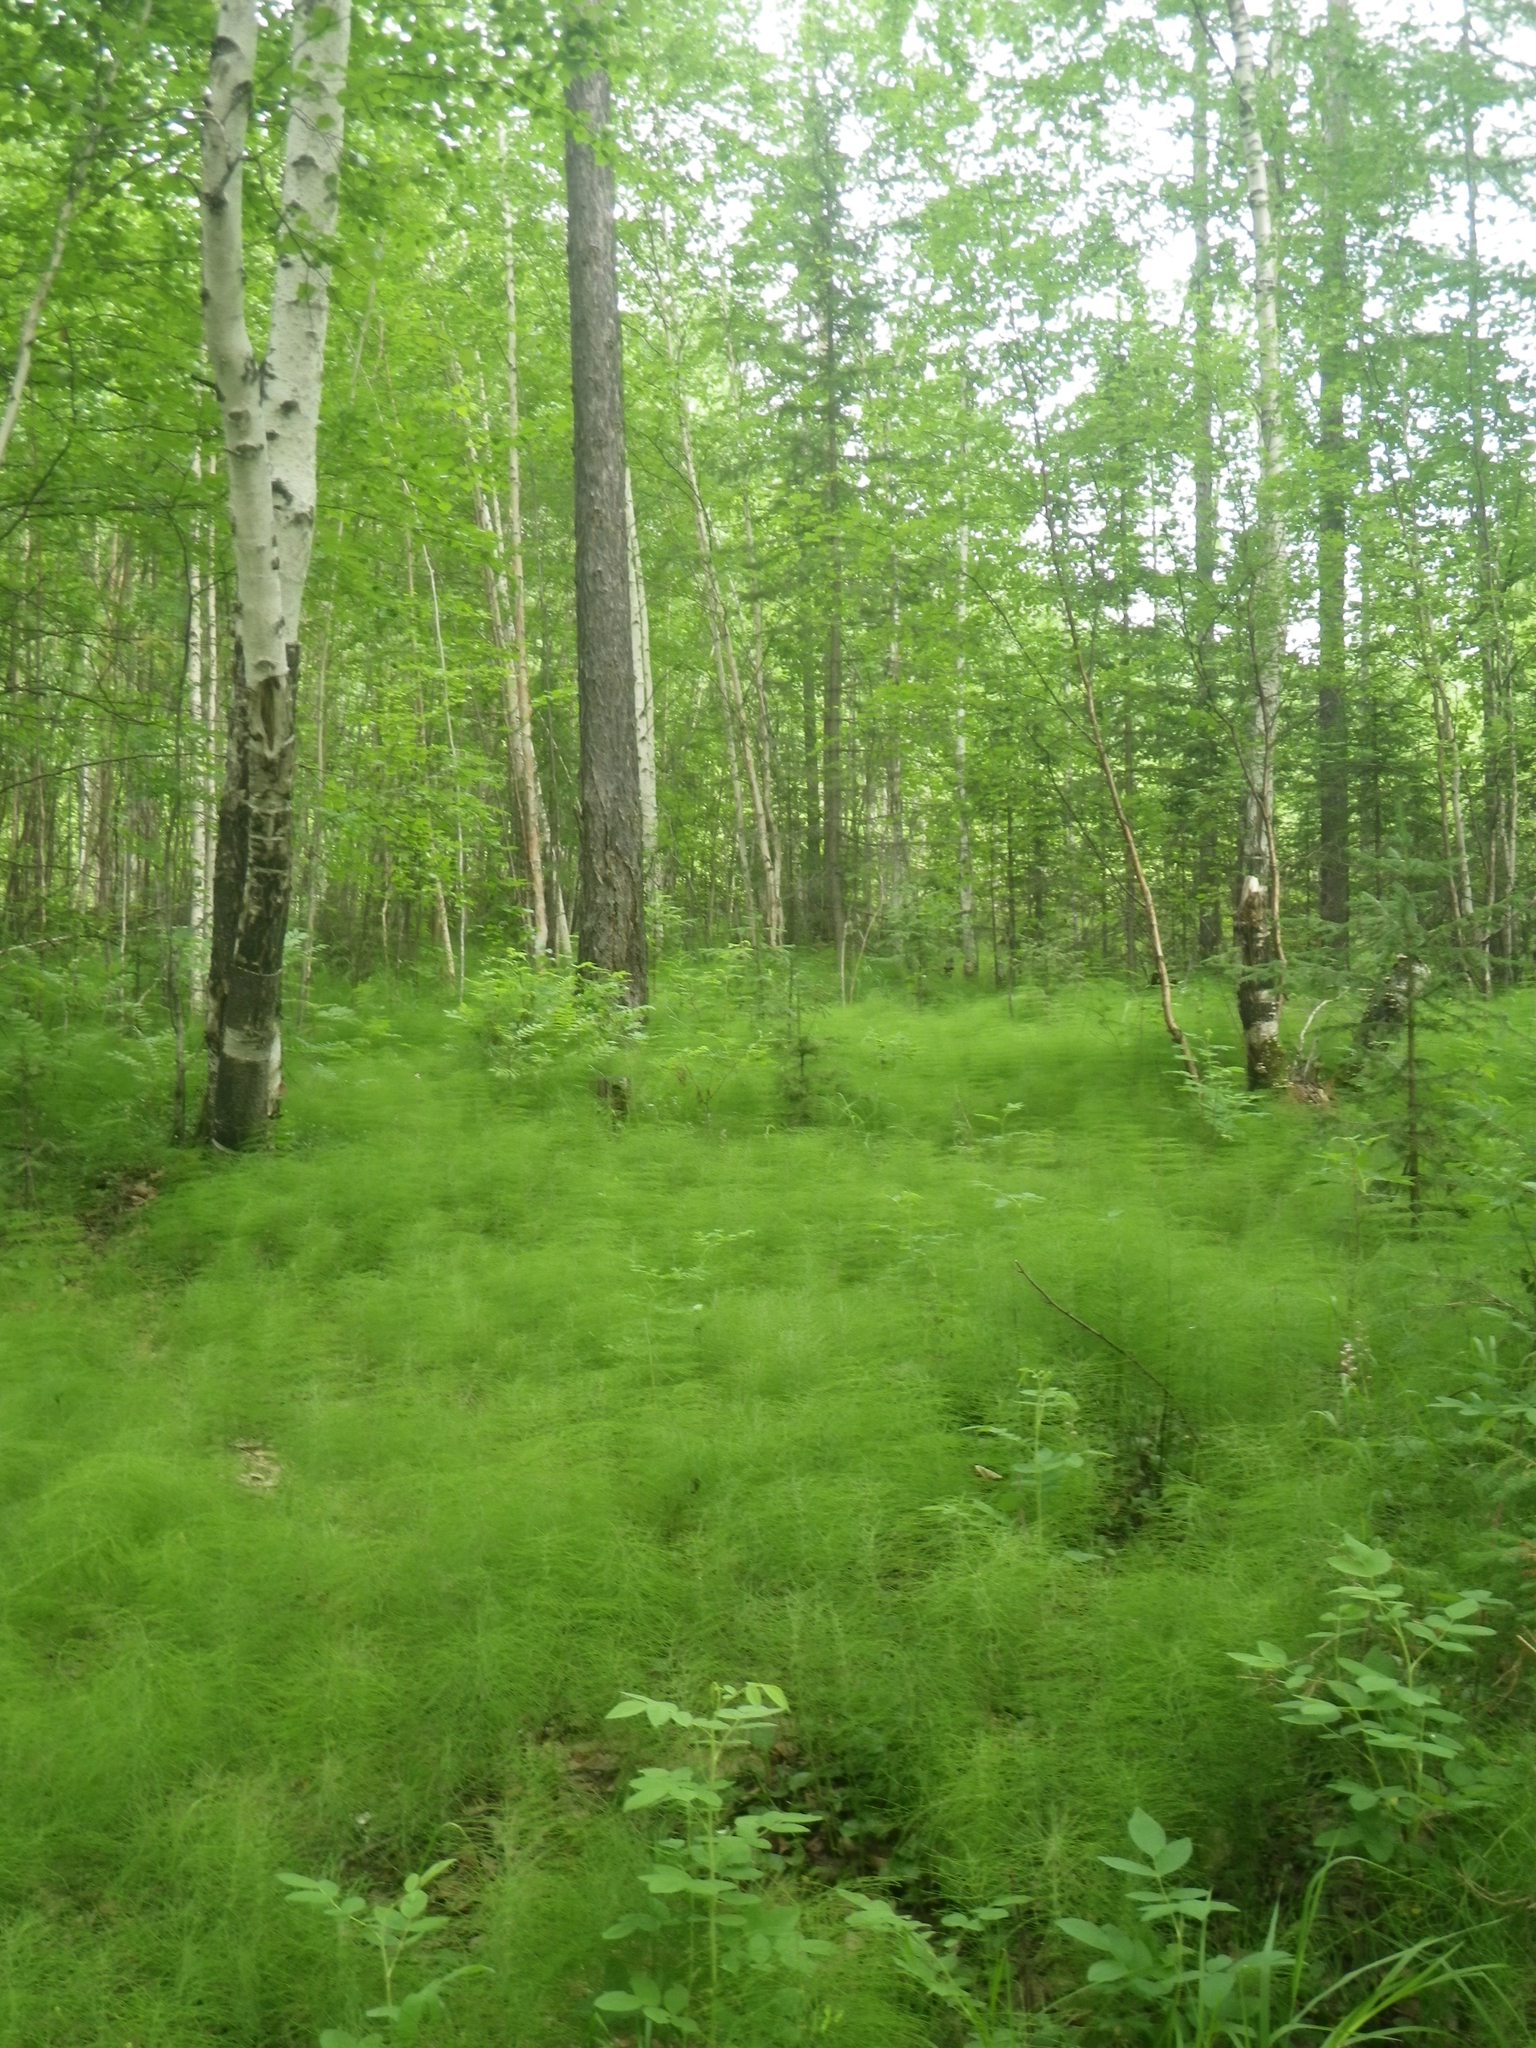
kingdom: Plantae
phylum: Tracheophyta
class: Polypodiopsida
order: Equisetales
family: Equisetaceae
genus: Equisetum
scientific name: Equisetum sylvaticum
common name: Wood horsetail
